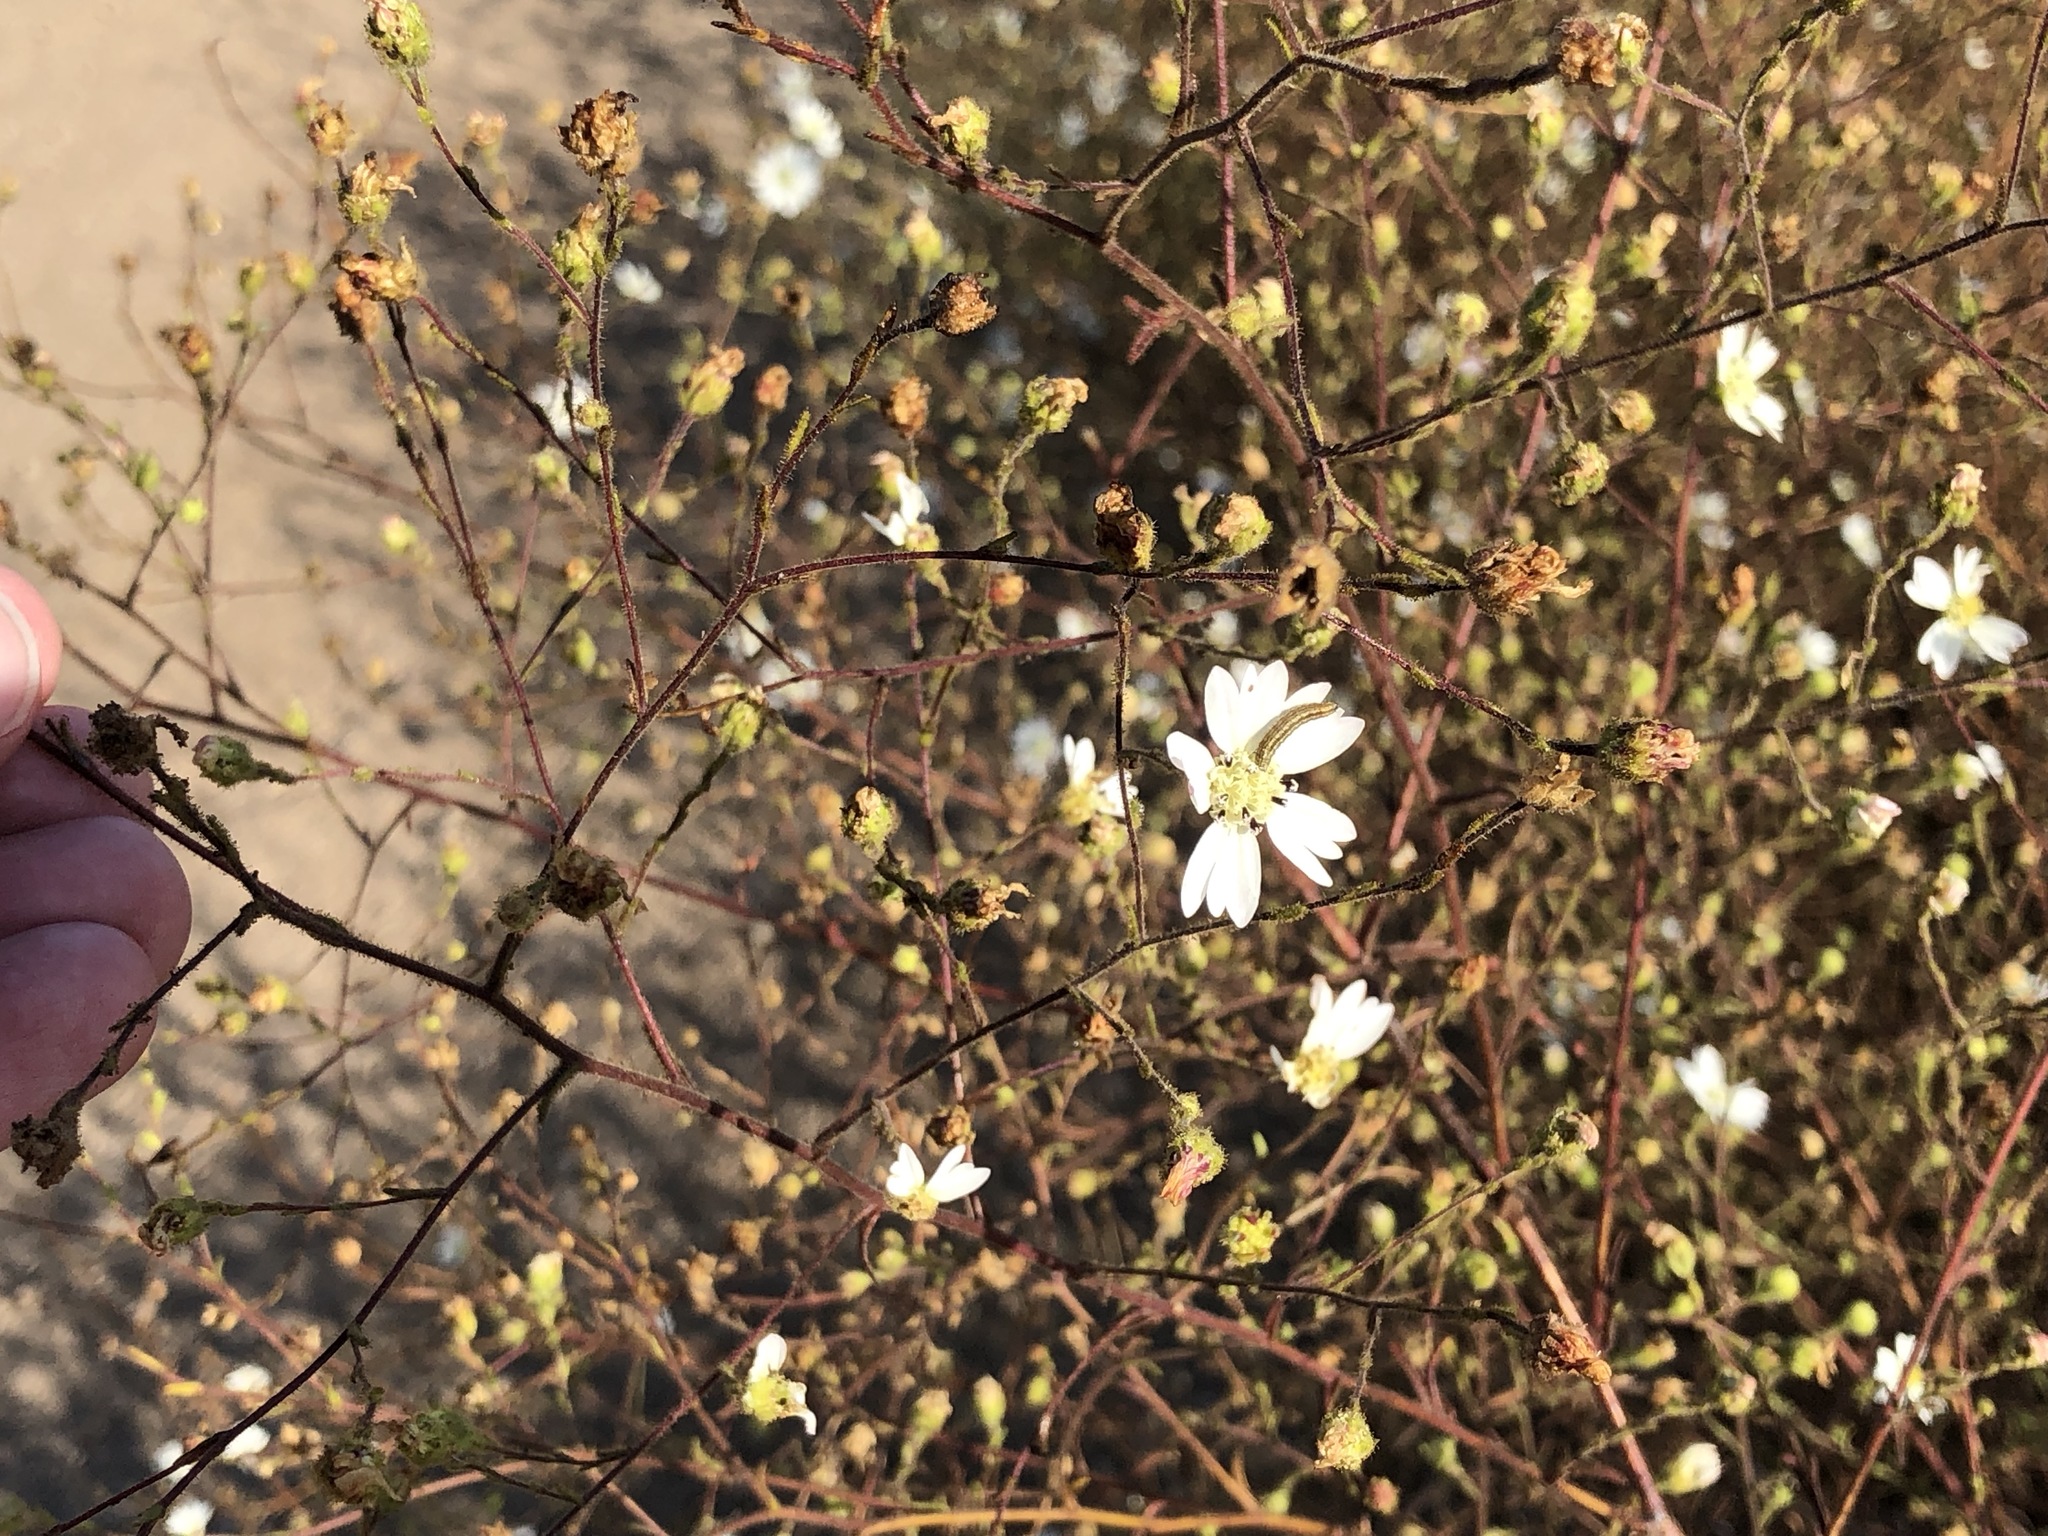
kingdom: Plantae
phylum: Tracheophyta
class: Magnoliopsida
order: Asterales
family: Asteraceae
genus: Hemizonia
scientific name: Hemizonia congesta
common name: Hayfield tarweed
